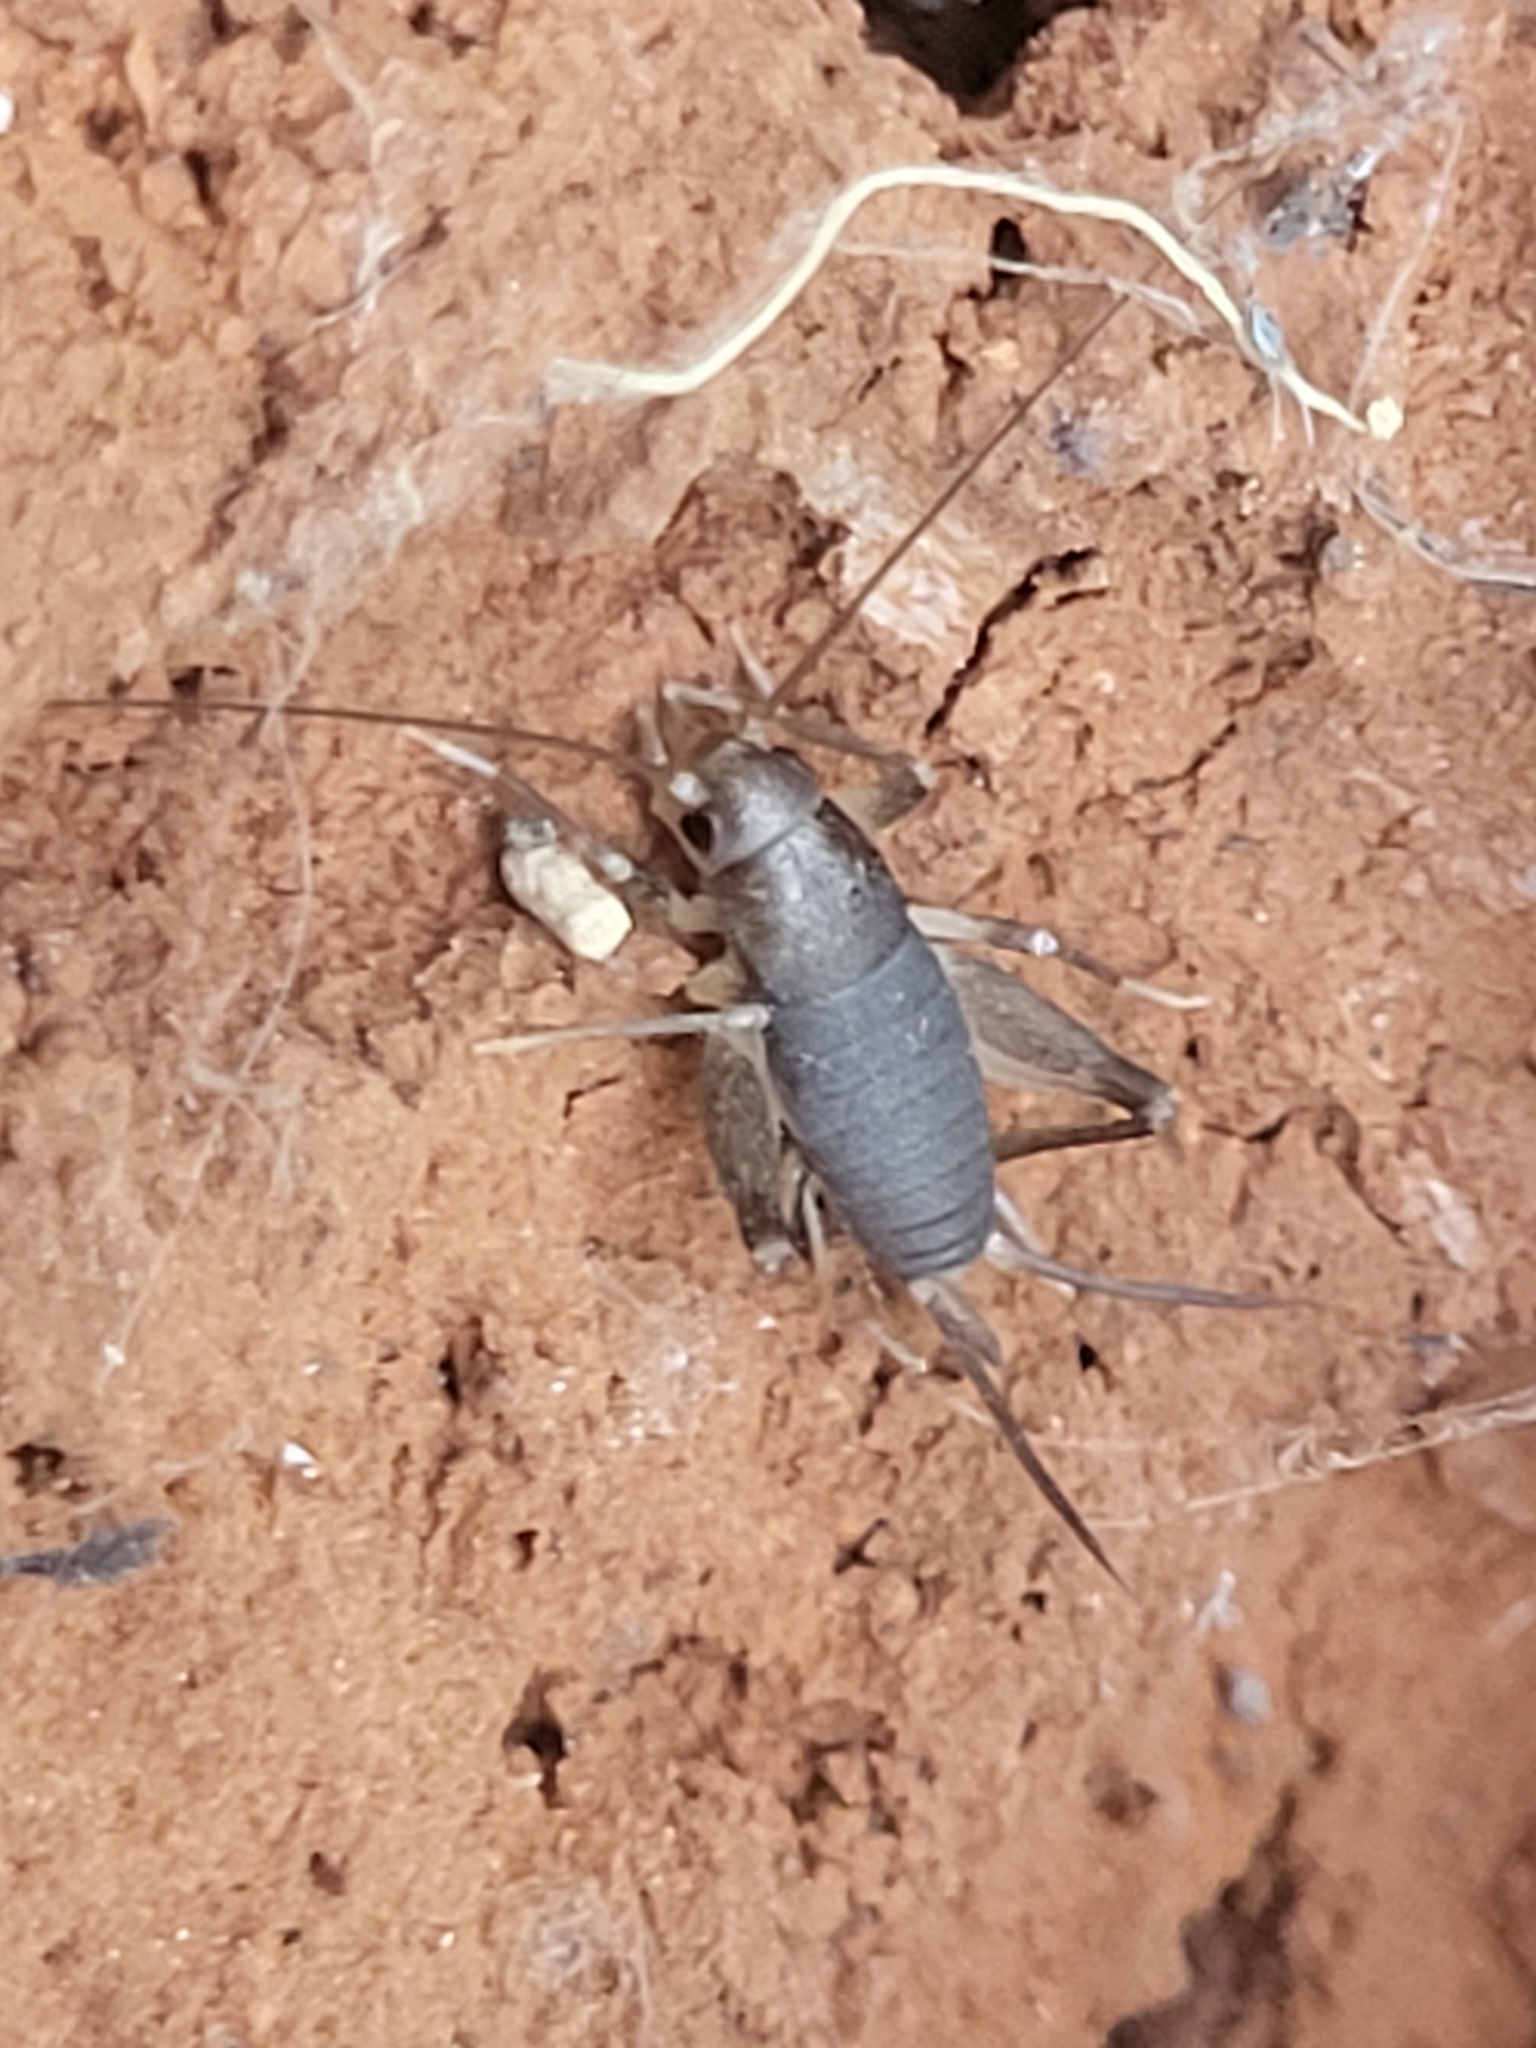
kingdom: Animalia
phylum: Arthropoda
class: Insecta
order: Orthoptera
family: Mogoplistidae
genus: Cycloptiloides
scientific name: Cycloptiloides americanus
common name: Saussure’s scaly cricket
